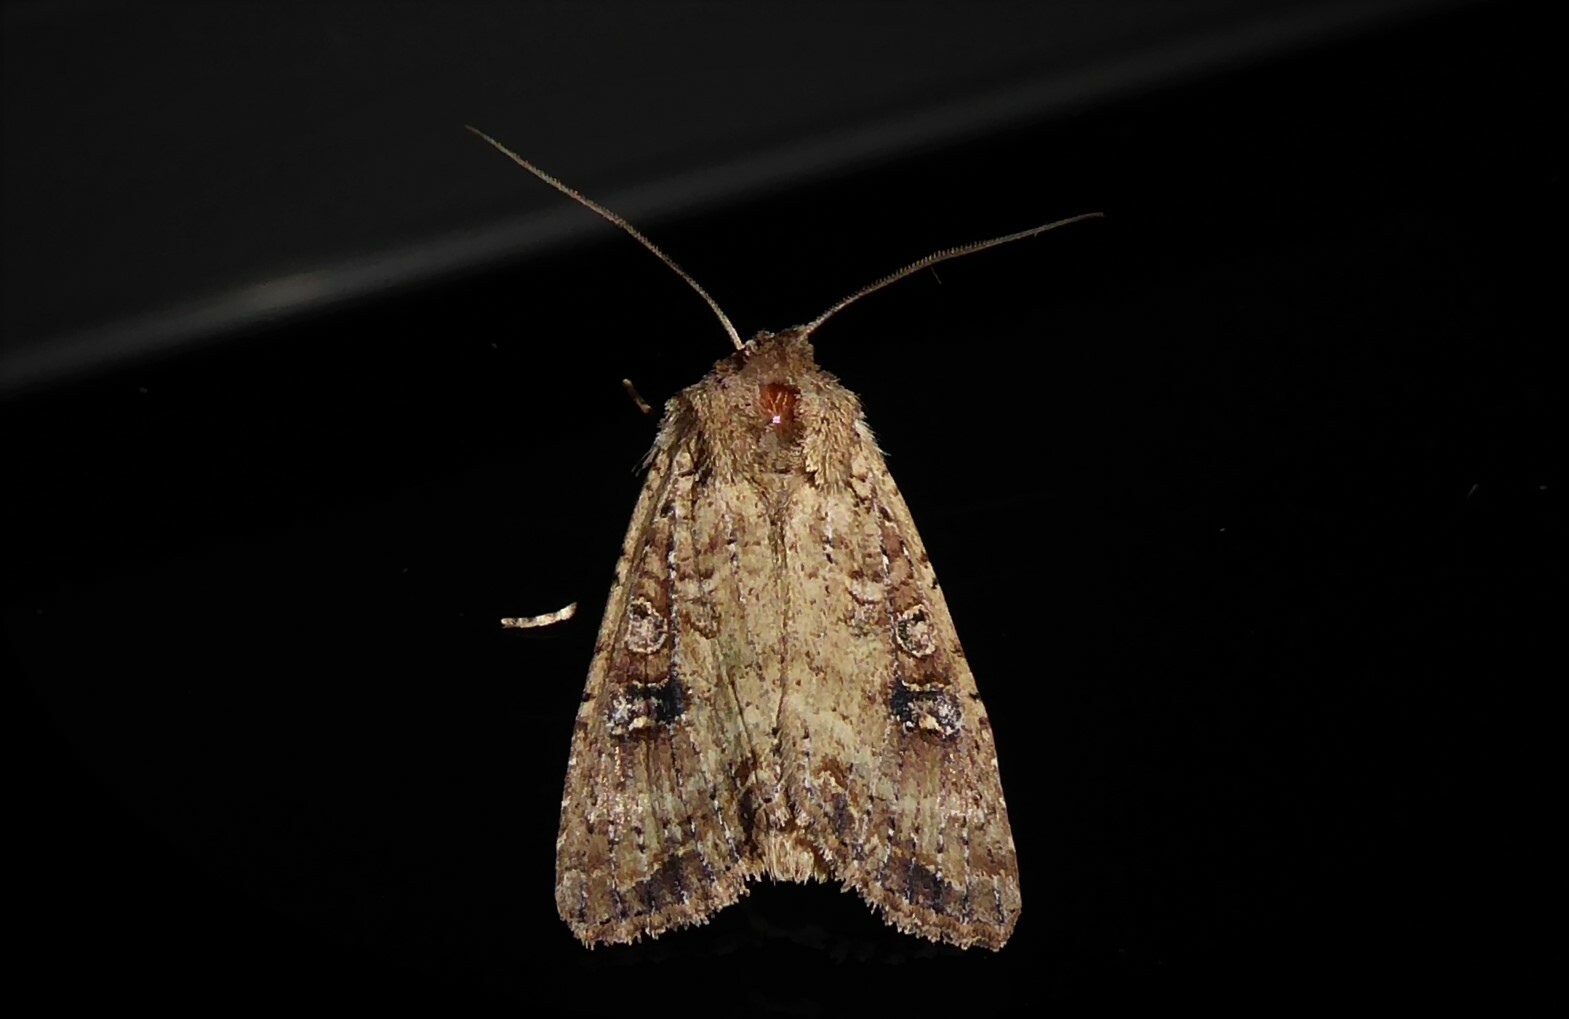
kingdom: Animalia
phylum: Arthropoda
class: Insecta
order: Lepidoptera
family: Noctuidae
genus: Ichneutica
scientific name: Ichneutica morosa
